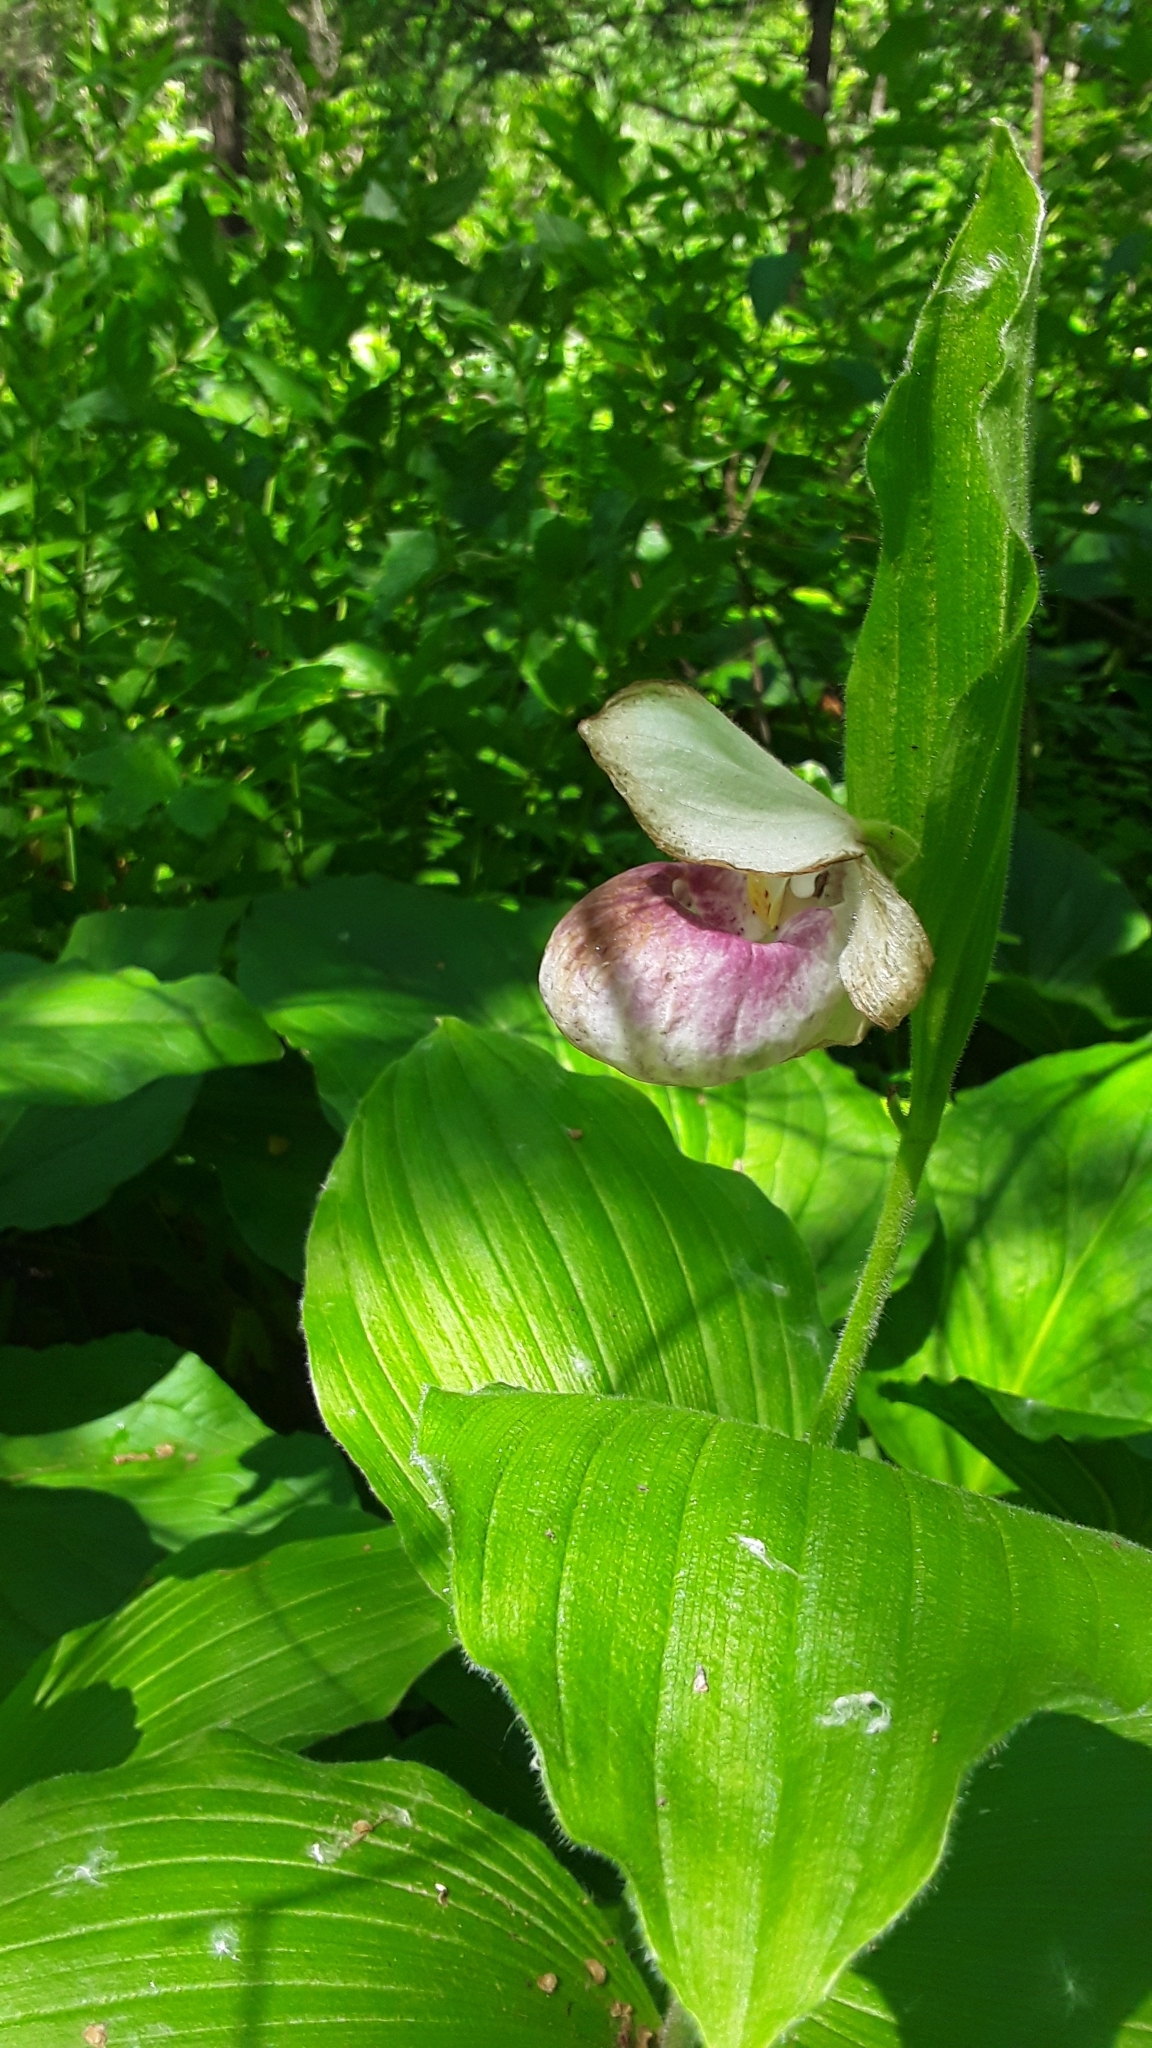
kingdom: Plantae
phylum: Tracheophyta
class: Liliopsida
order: Asparagales
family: Orchidaceae
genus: Cypripedium
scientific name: Cypripedium reginae
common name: Queen lady's-slipper
